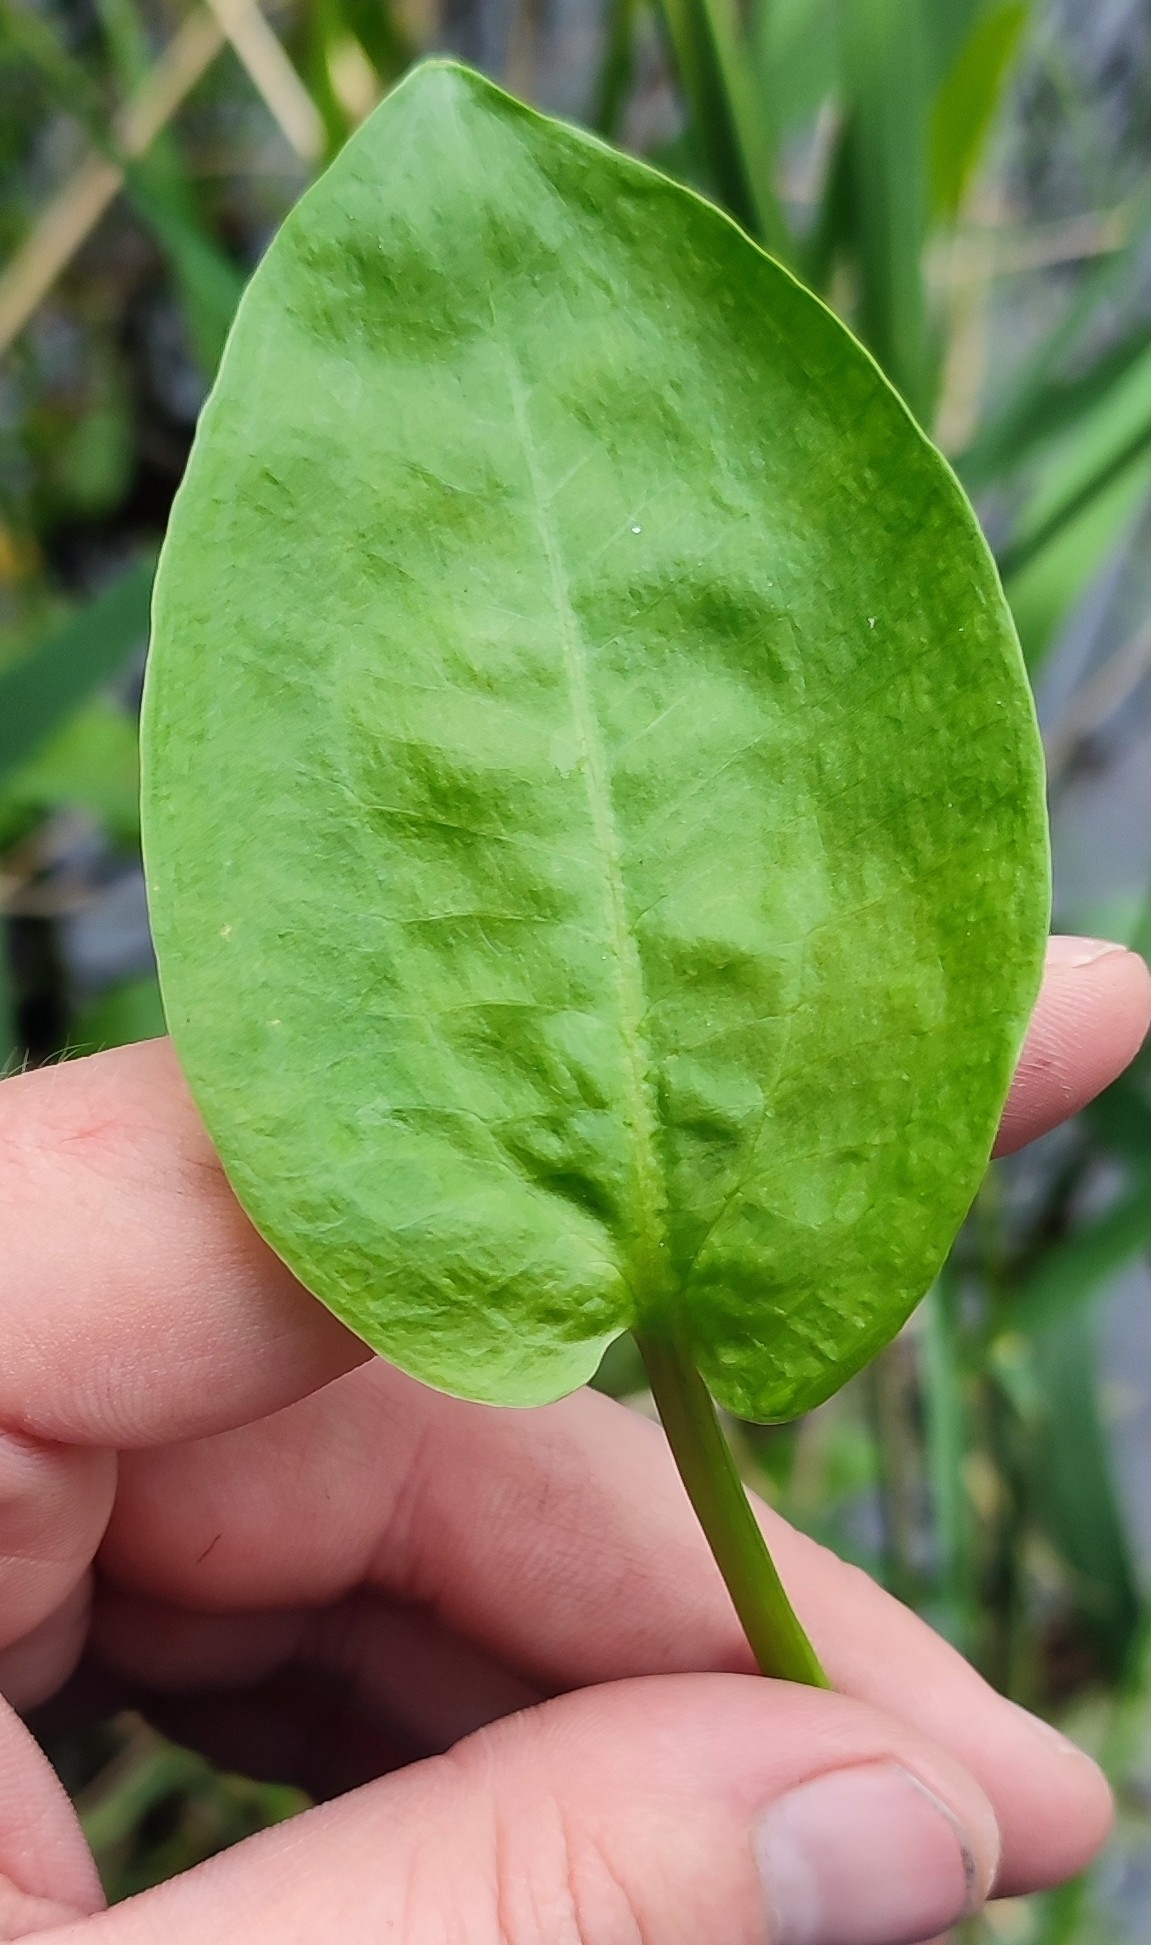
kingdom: Plantae
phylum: Tracheophyta
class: Liliopsida
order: Alismatales
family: Alismataceae
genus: Alisma
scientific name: Alisma plantago-aquatica
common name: Water-plantain
